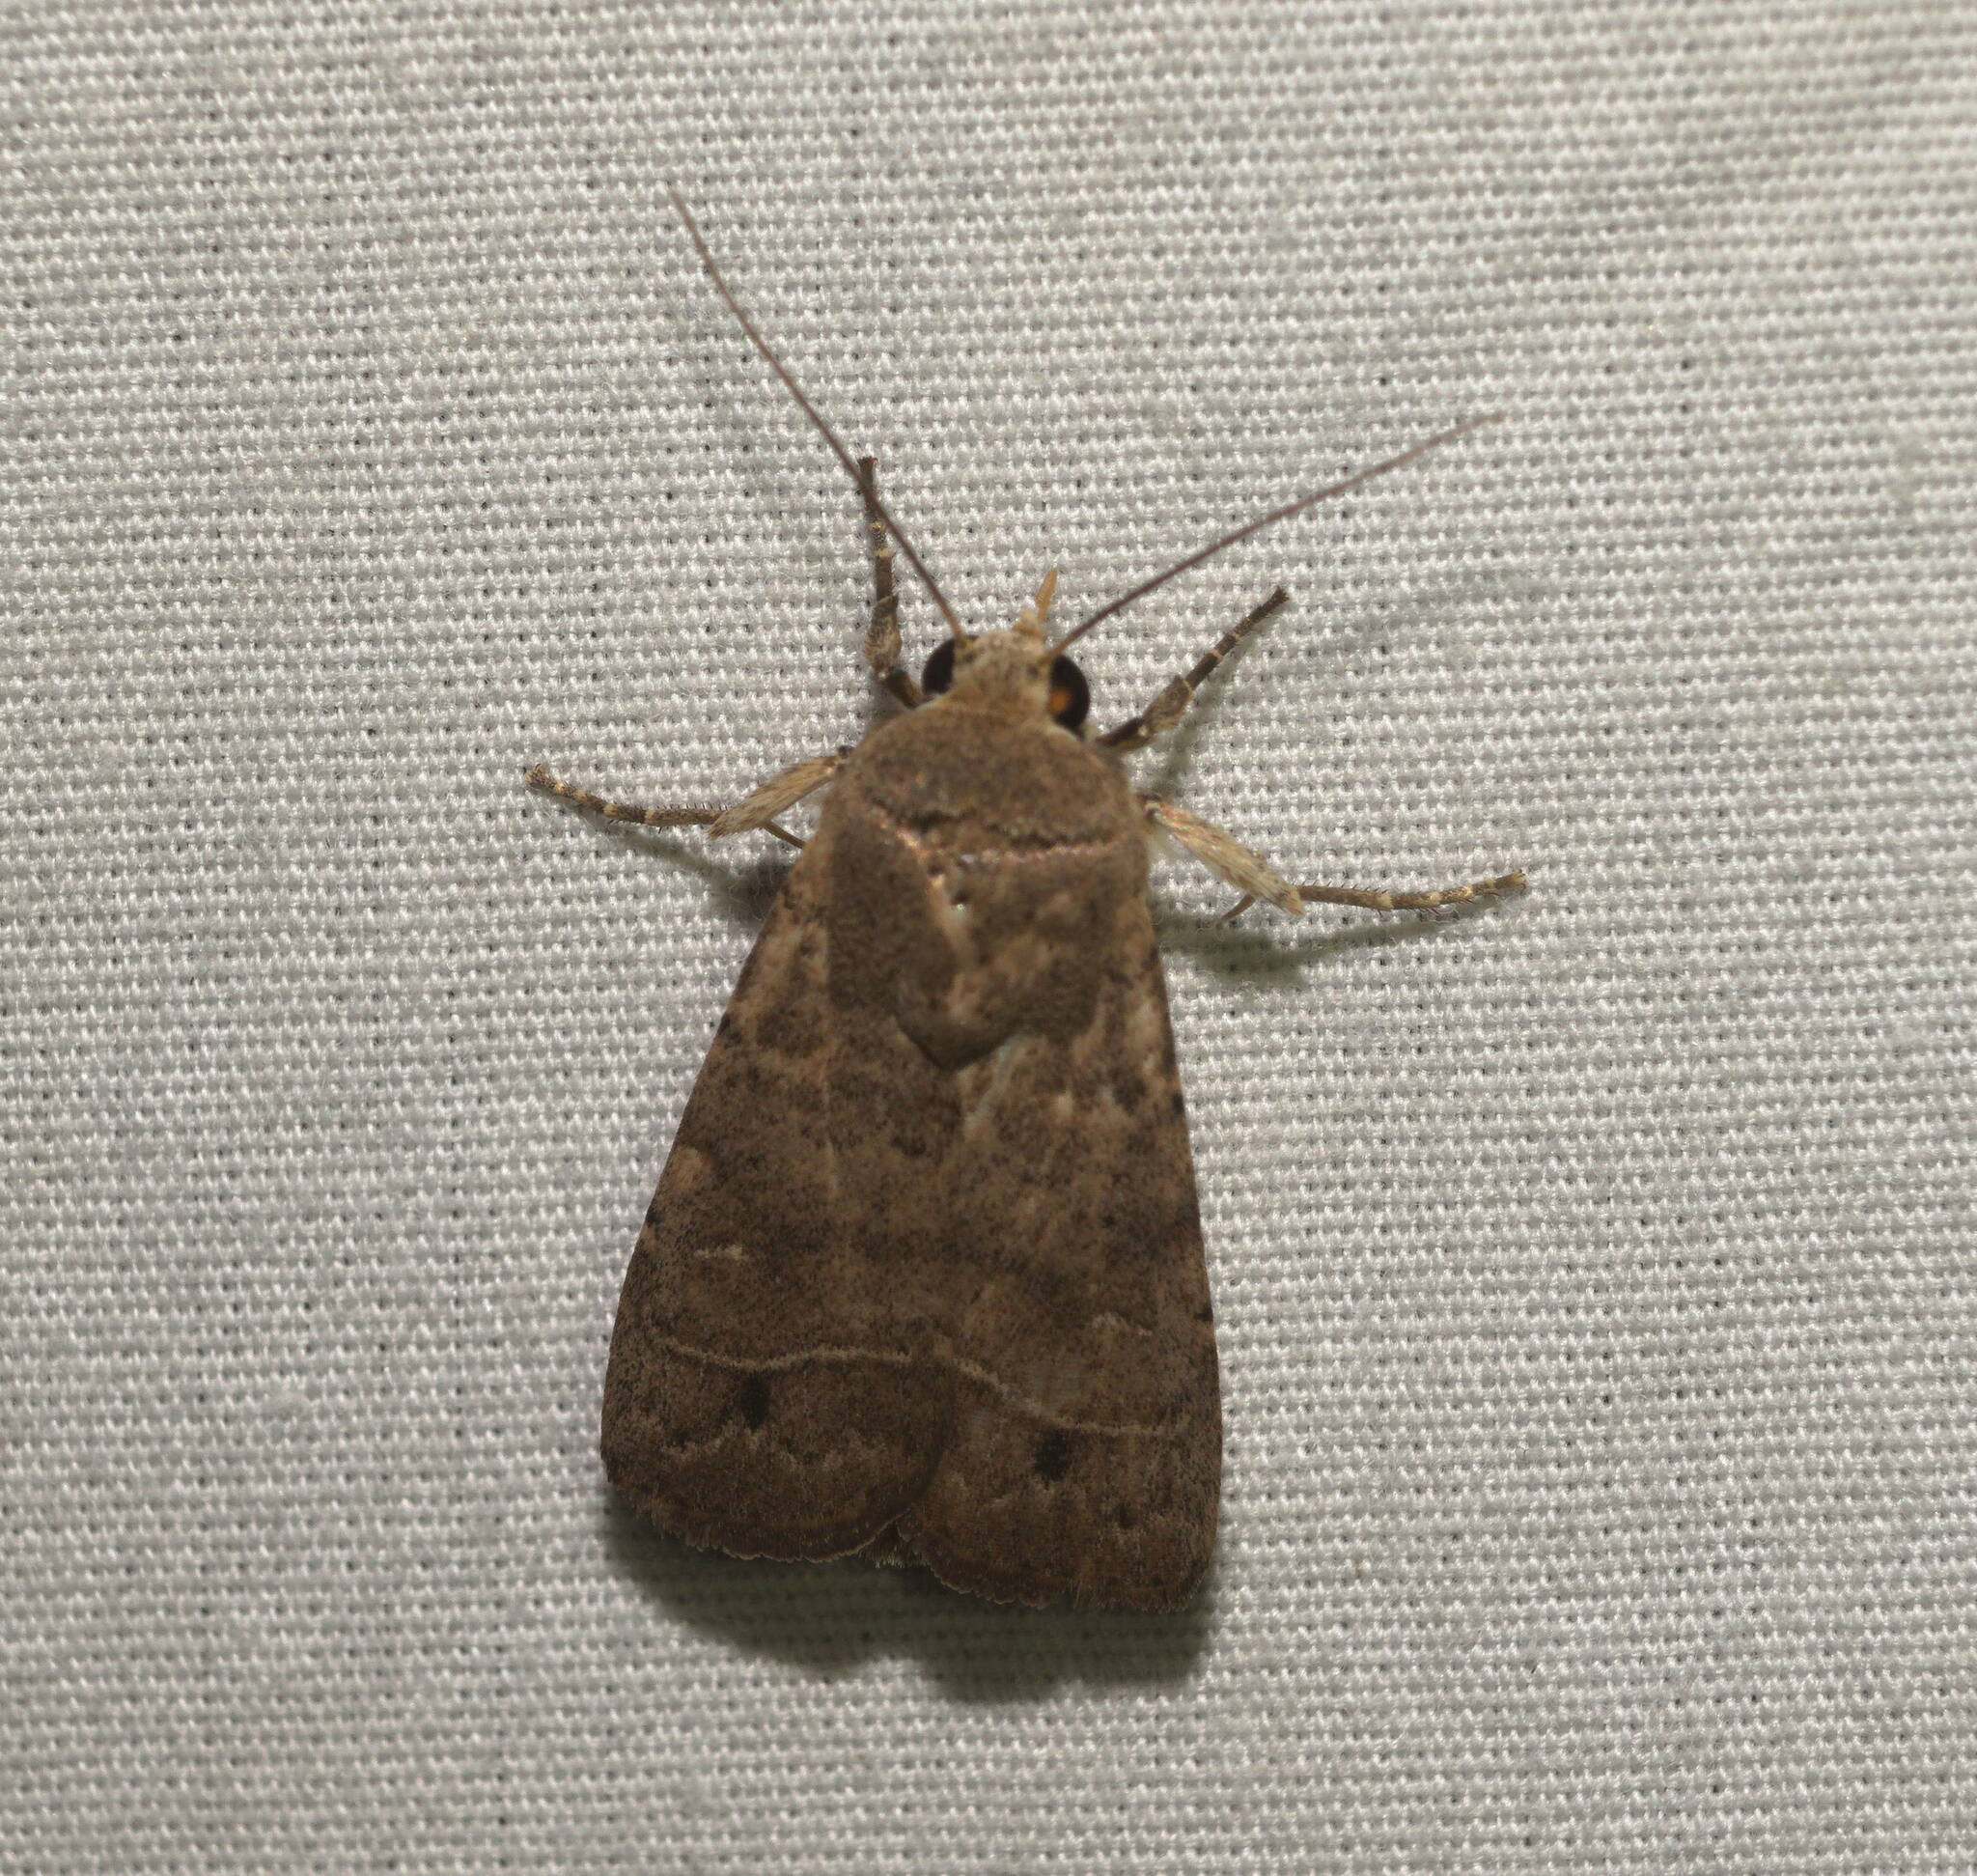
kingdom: Animalia
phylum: Arthropoda
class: Insecta
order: Lepidoptera
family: Noctuidae
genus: Athetis
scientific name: Athetis thoracica
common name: Cutworm
